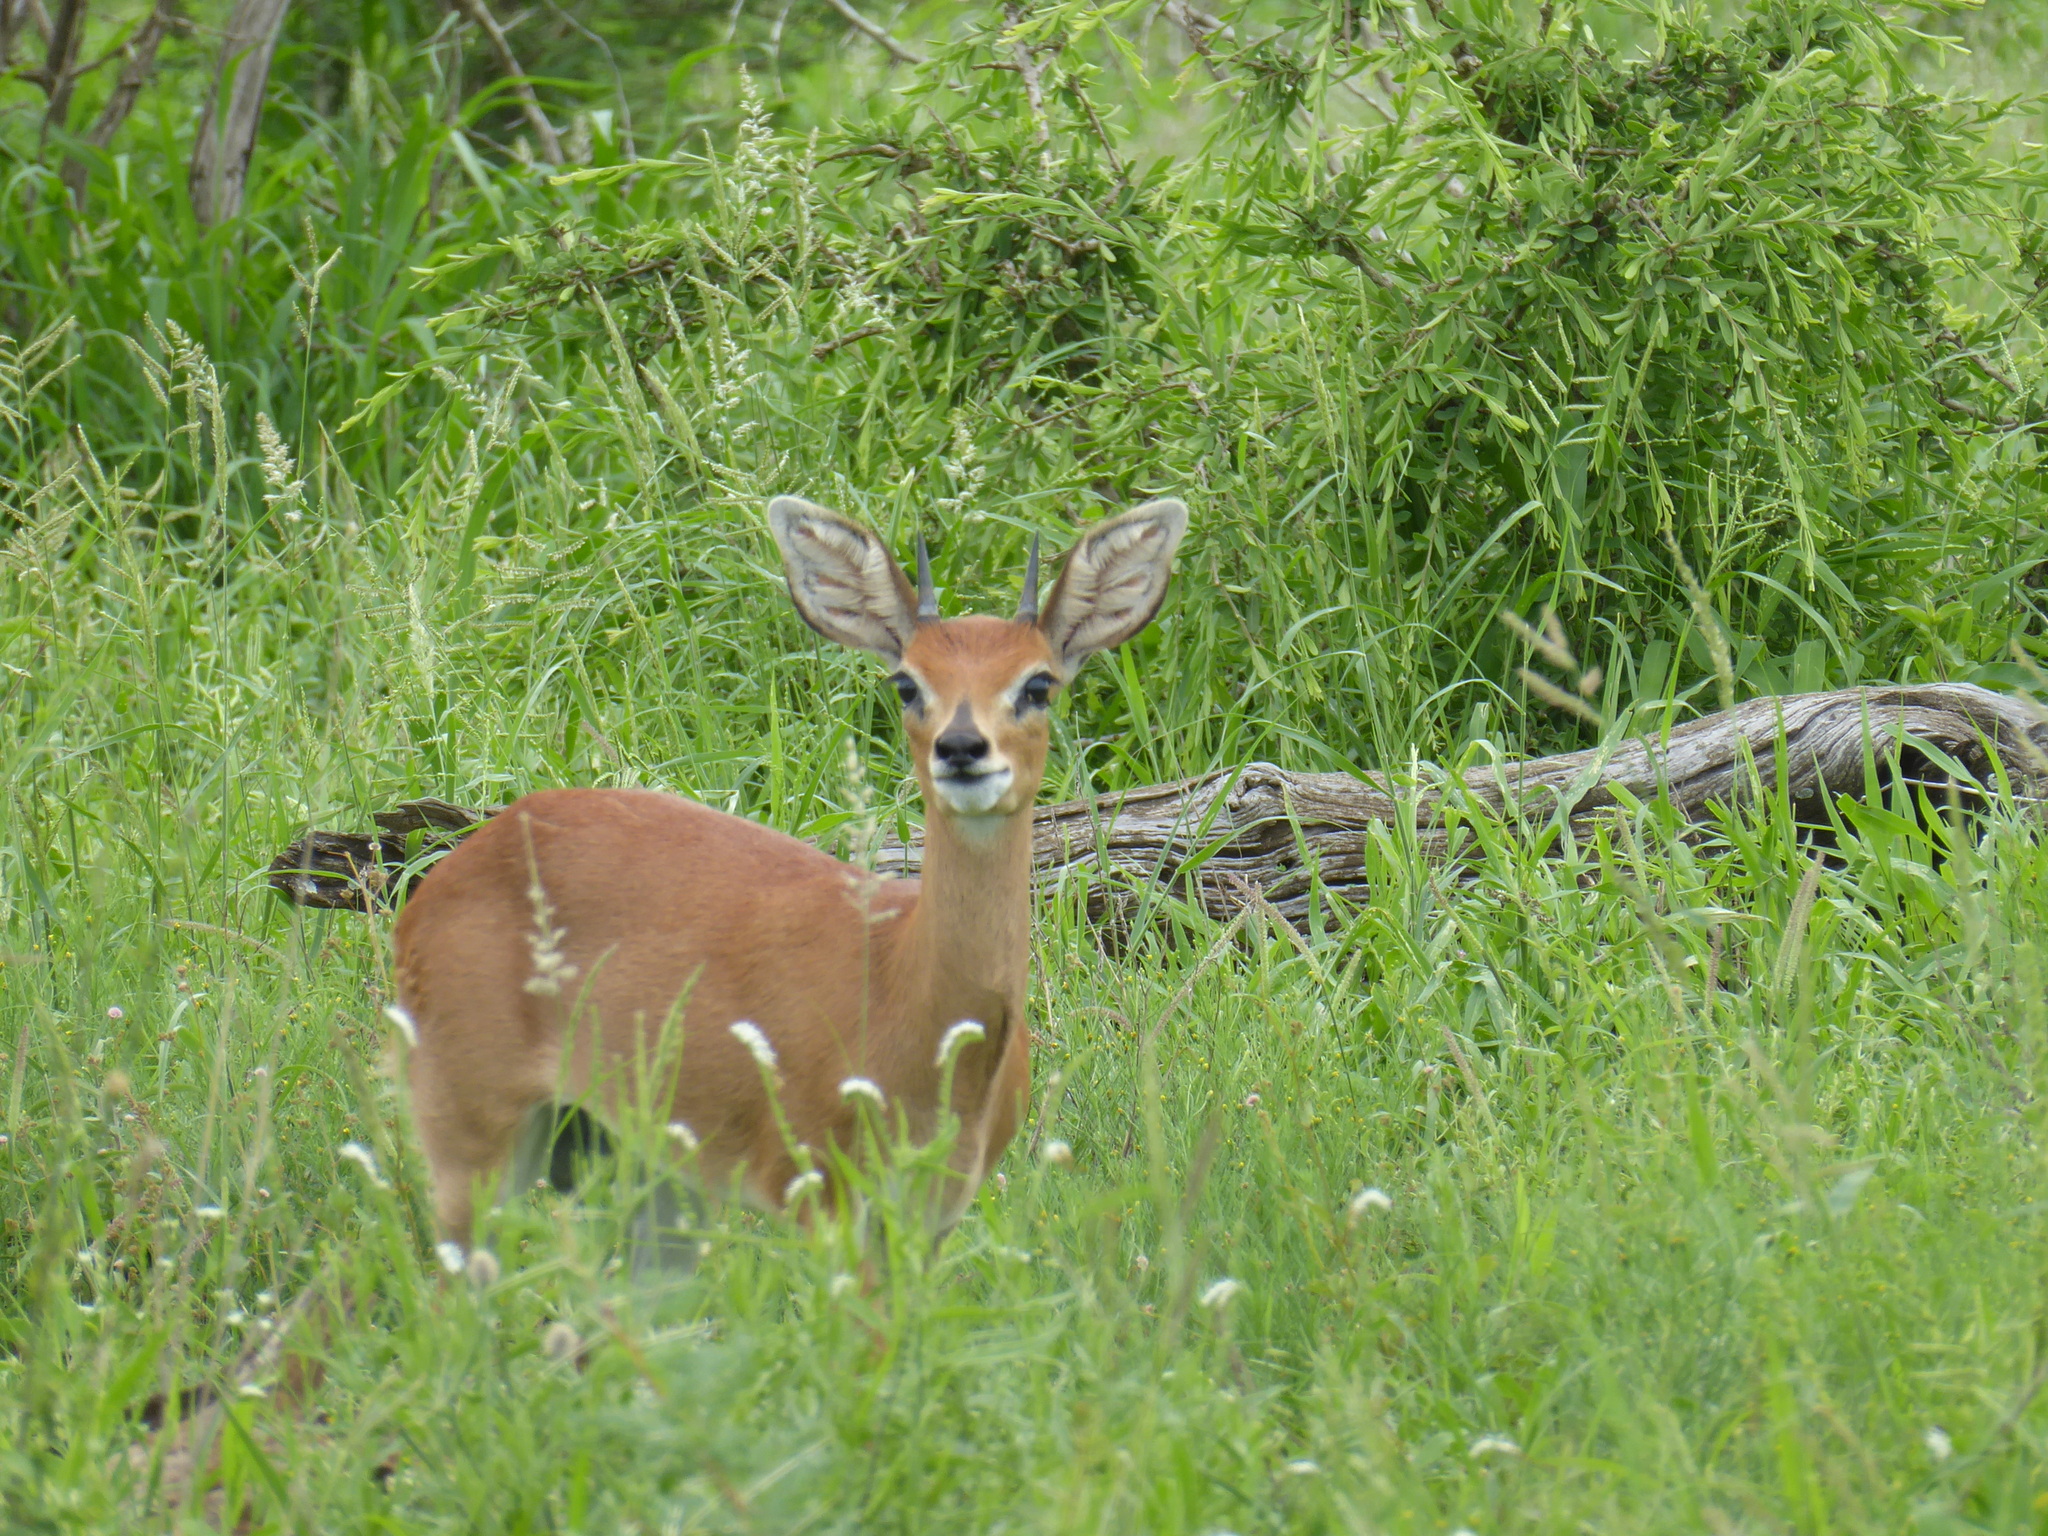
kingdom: Animalia
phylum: Chordata
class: Mammalia
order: Artiodactyla
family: Bovidae
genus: Raphicerus
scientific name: Raphicerus campestris
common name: Steenbok
